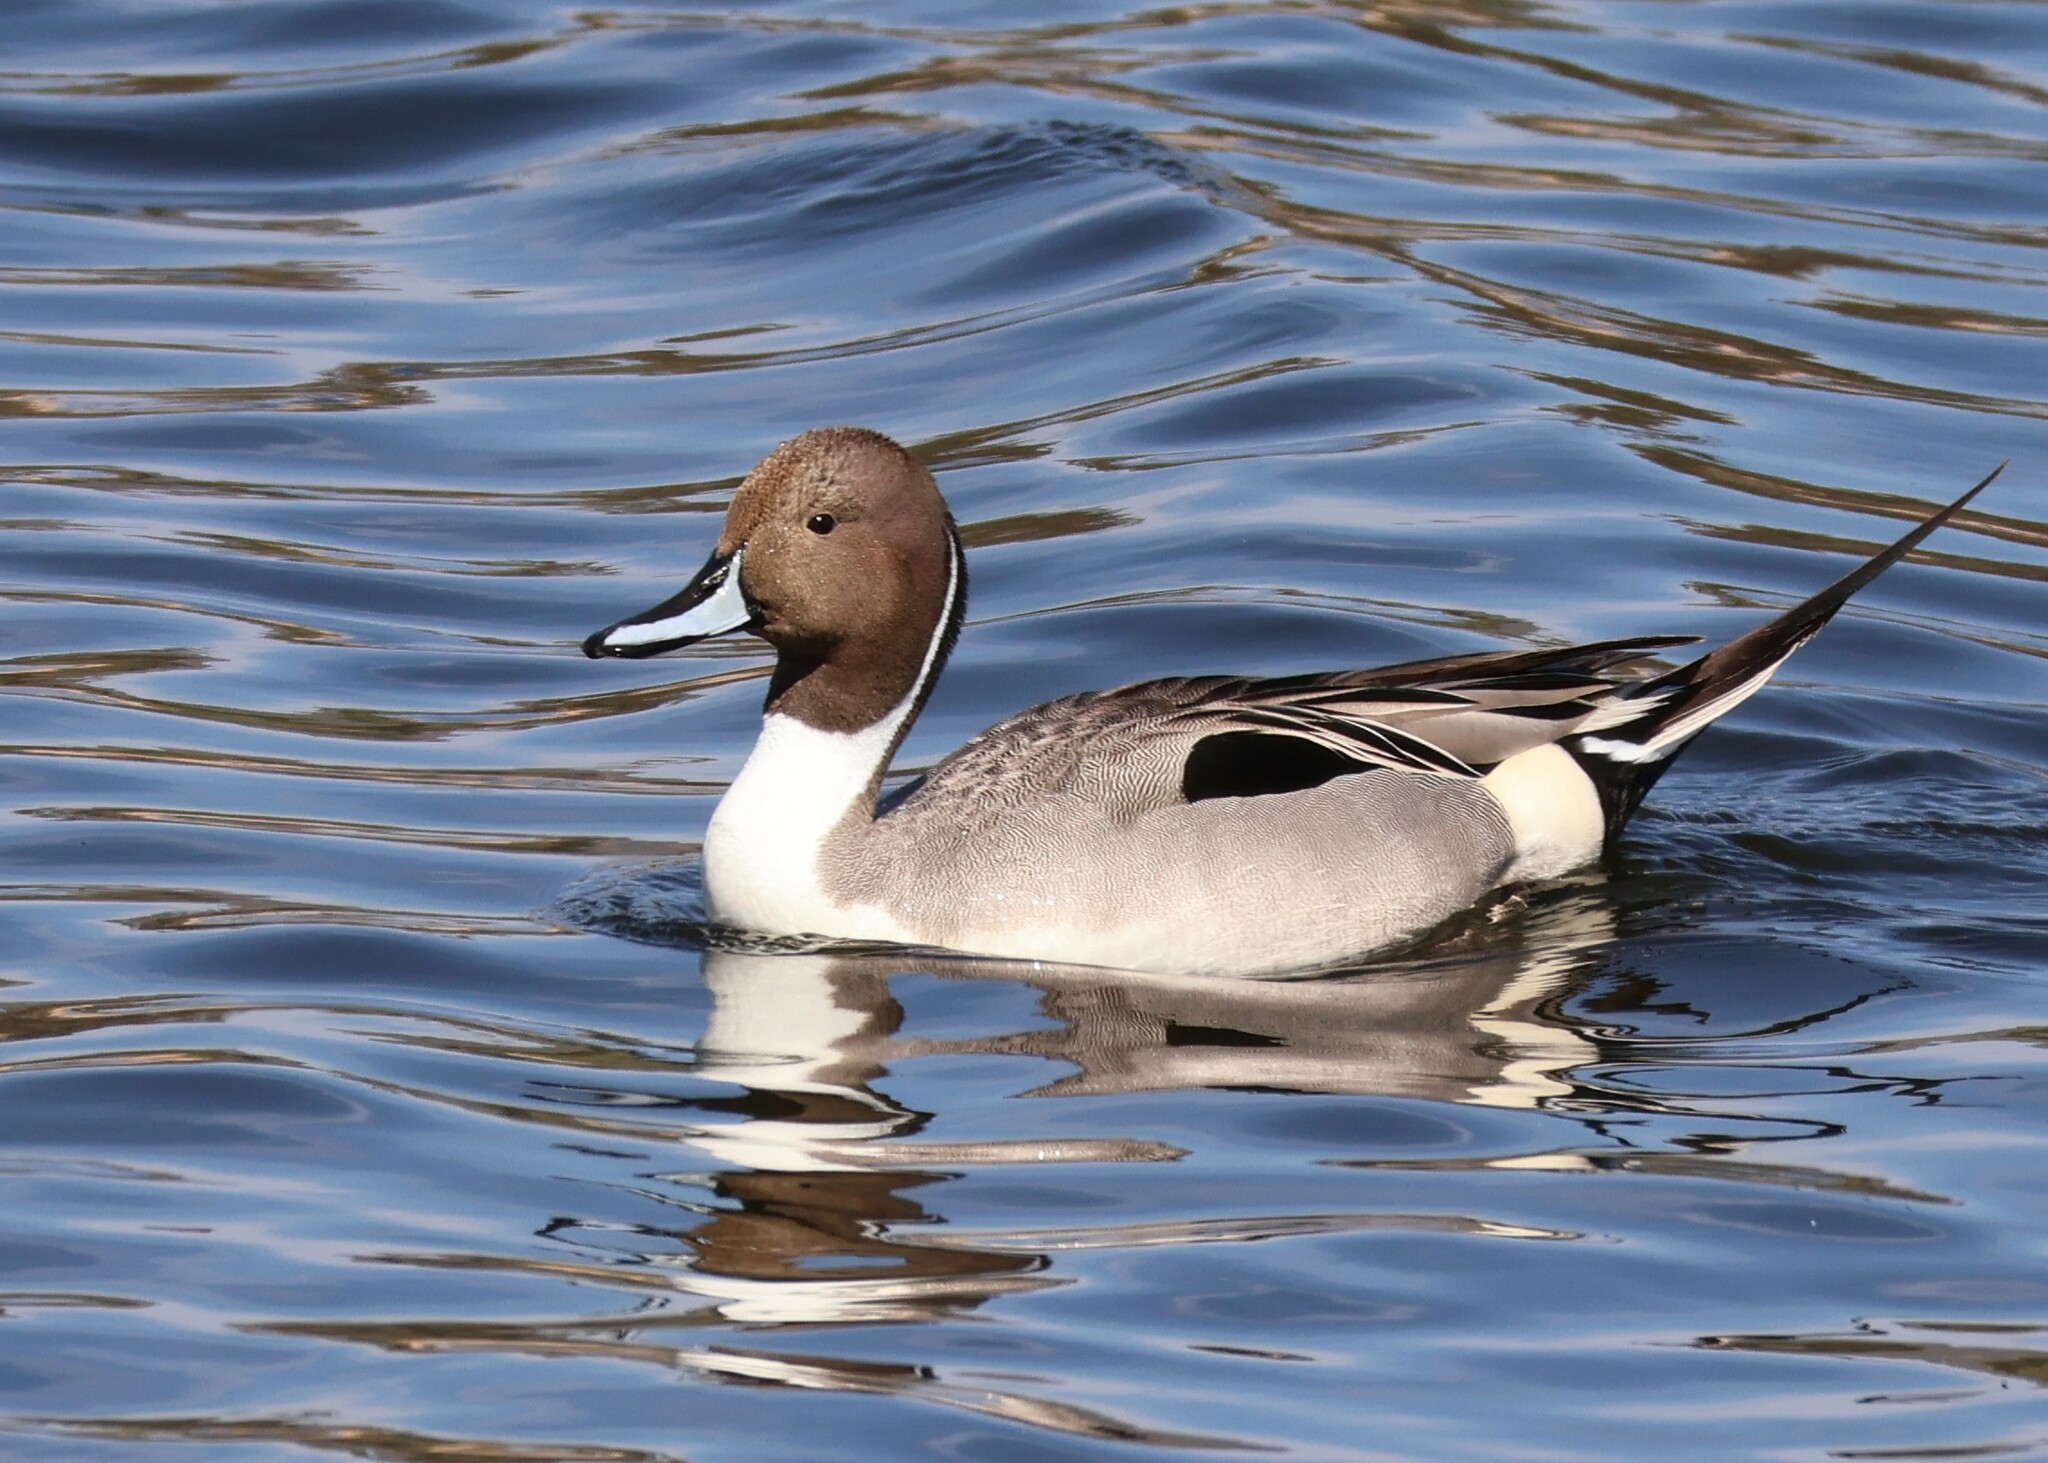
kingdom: Animalia
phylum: Chordata
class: Aves
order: Anseriformes
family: Anatidae
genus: Anas
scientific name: Anas acuta
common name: Northern pintail
